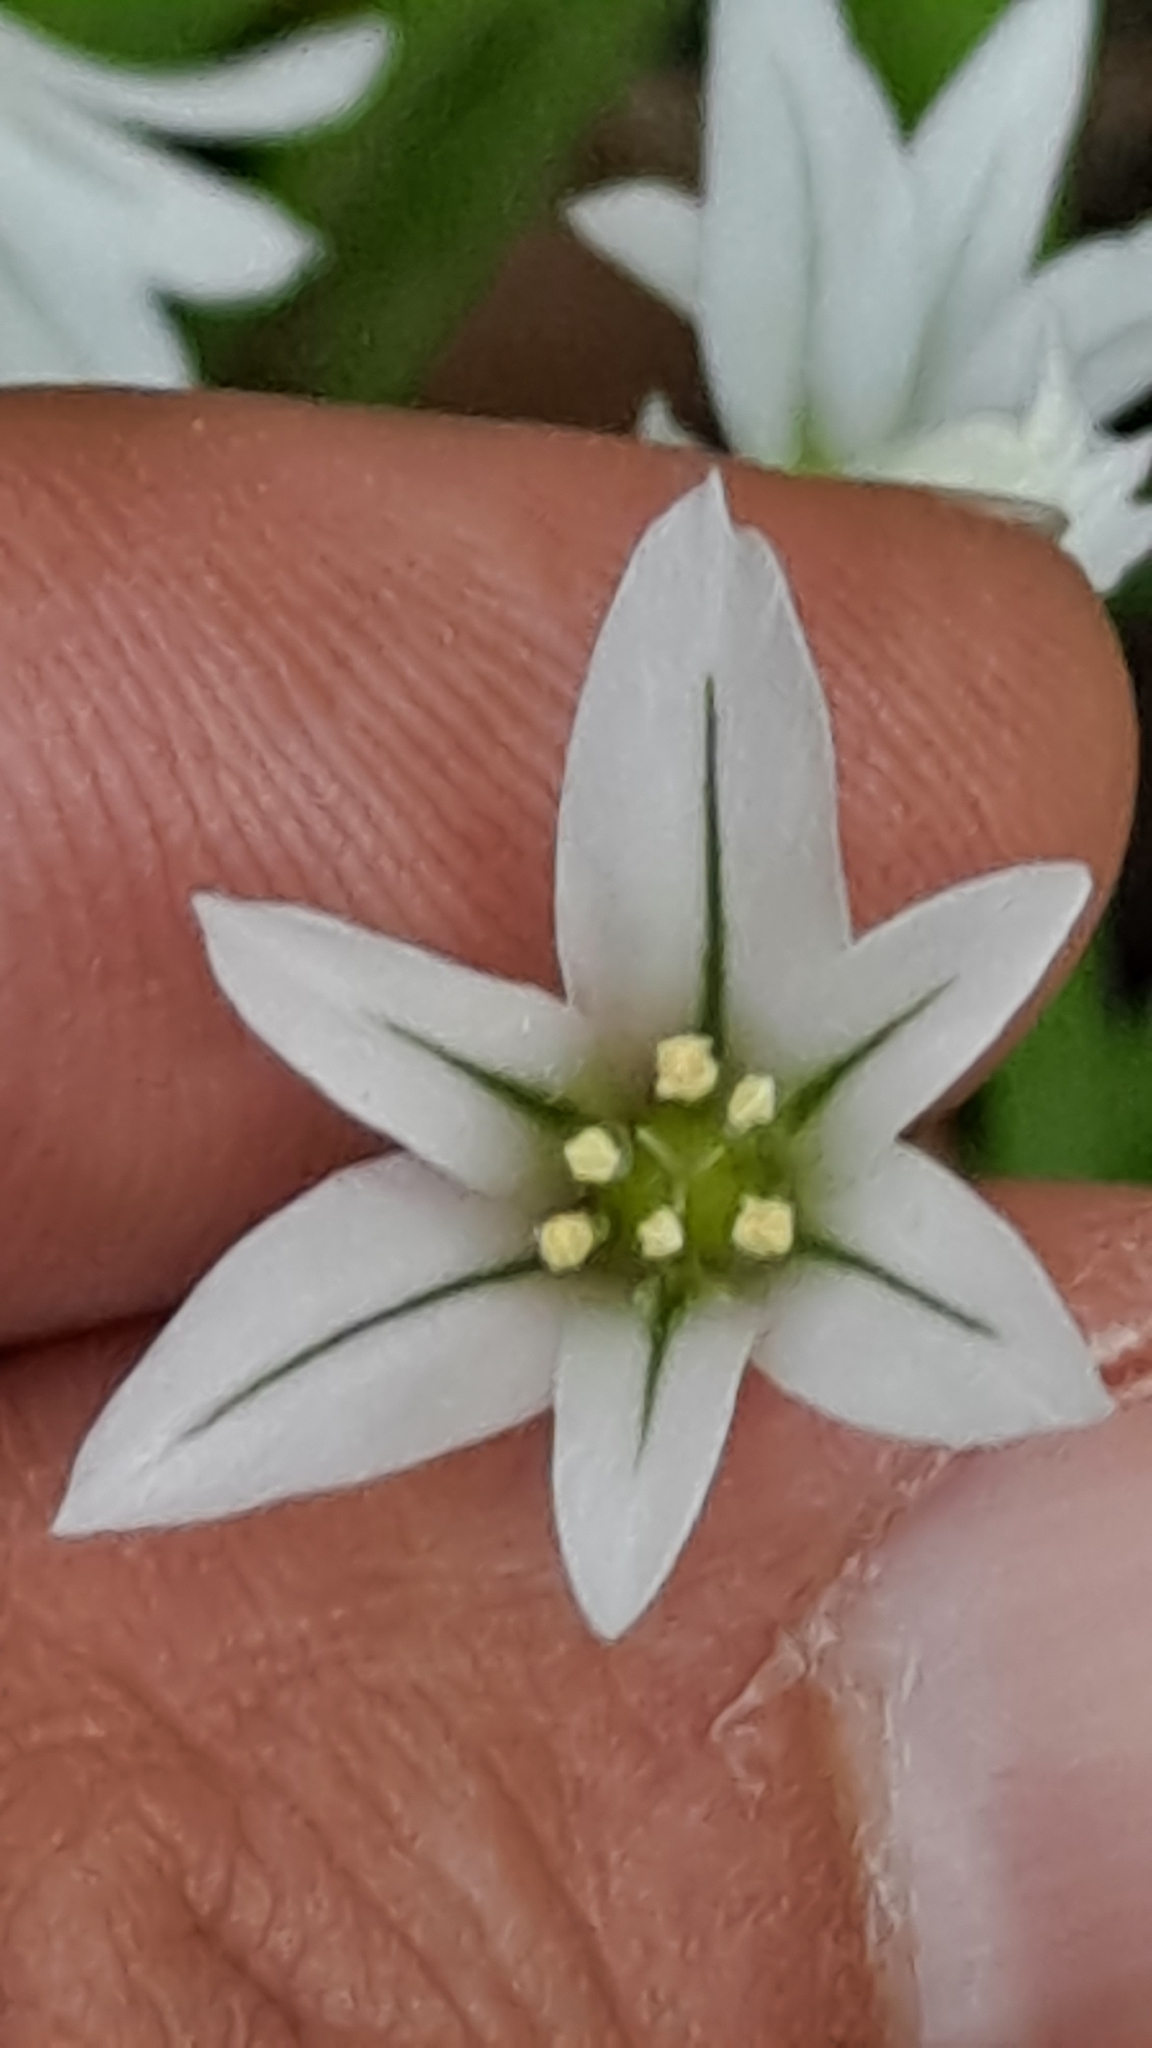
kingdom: Plantae
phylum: Tracheophyta
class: Liliopsida
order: Asparagales
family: Amaryllidaceae
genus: Allium
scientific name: Allium triquetrum
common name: Three-cornered garlic
